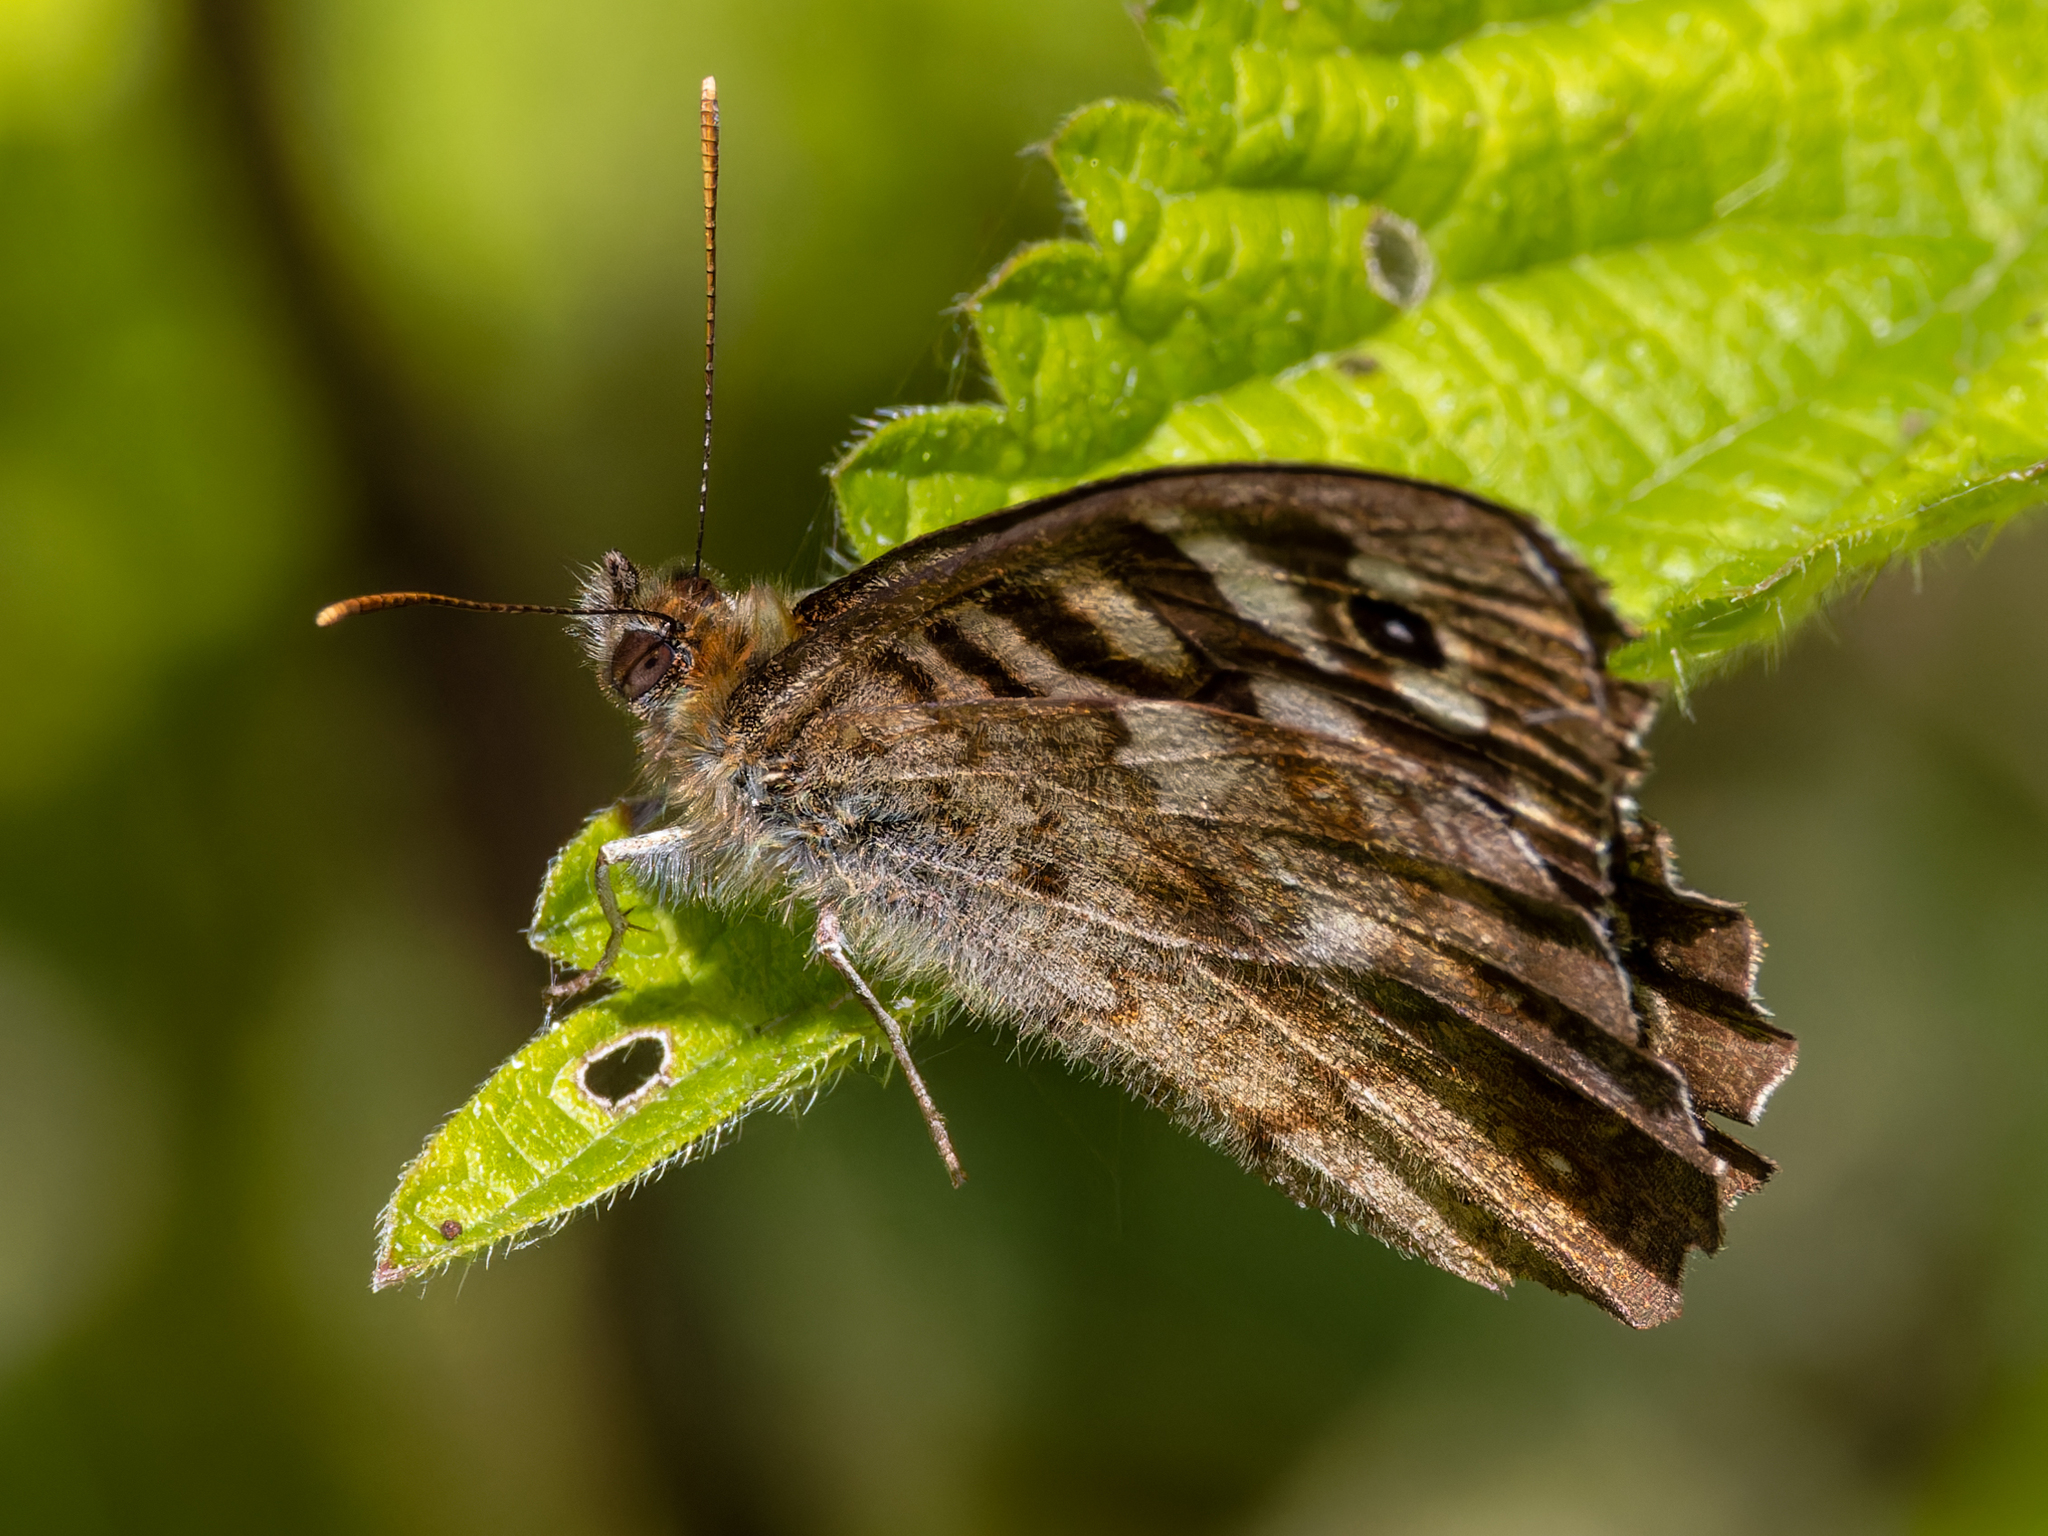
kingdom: Animalia
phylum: Arthropoda
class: Insecta
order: Lepidoptera
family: Nymphalidae
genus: Pararge
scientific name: Pararge aegeria
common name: Speckled wood
